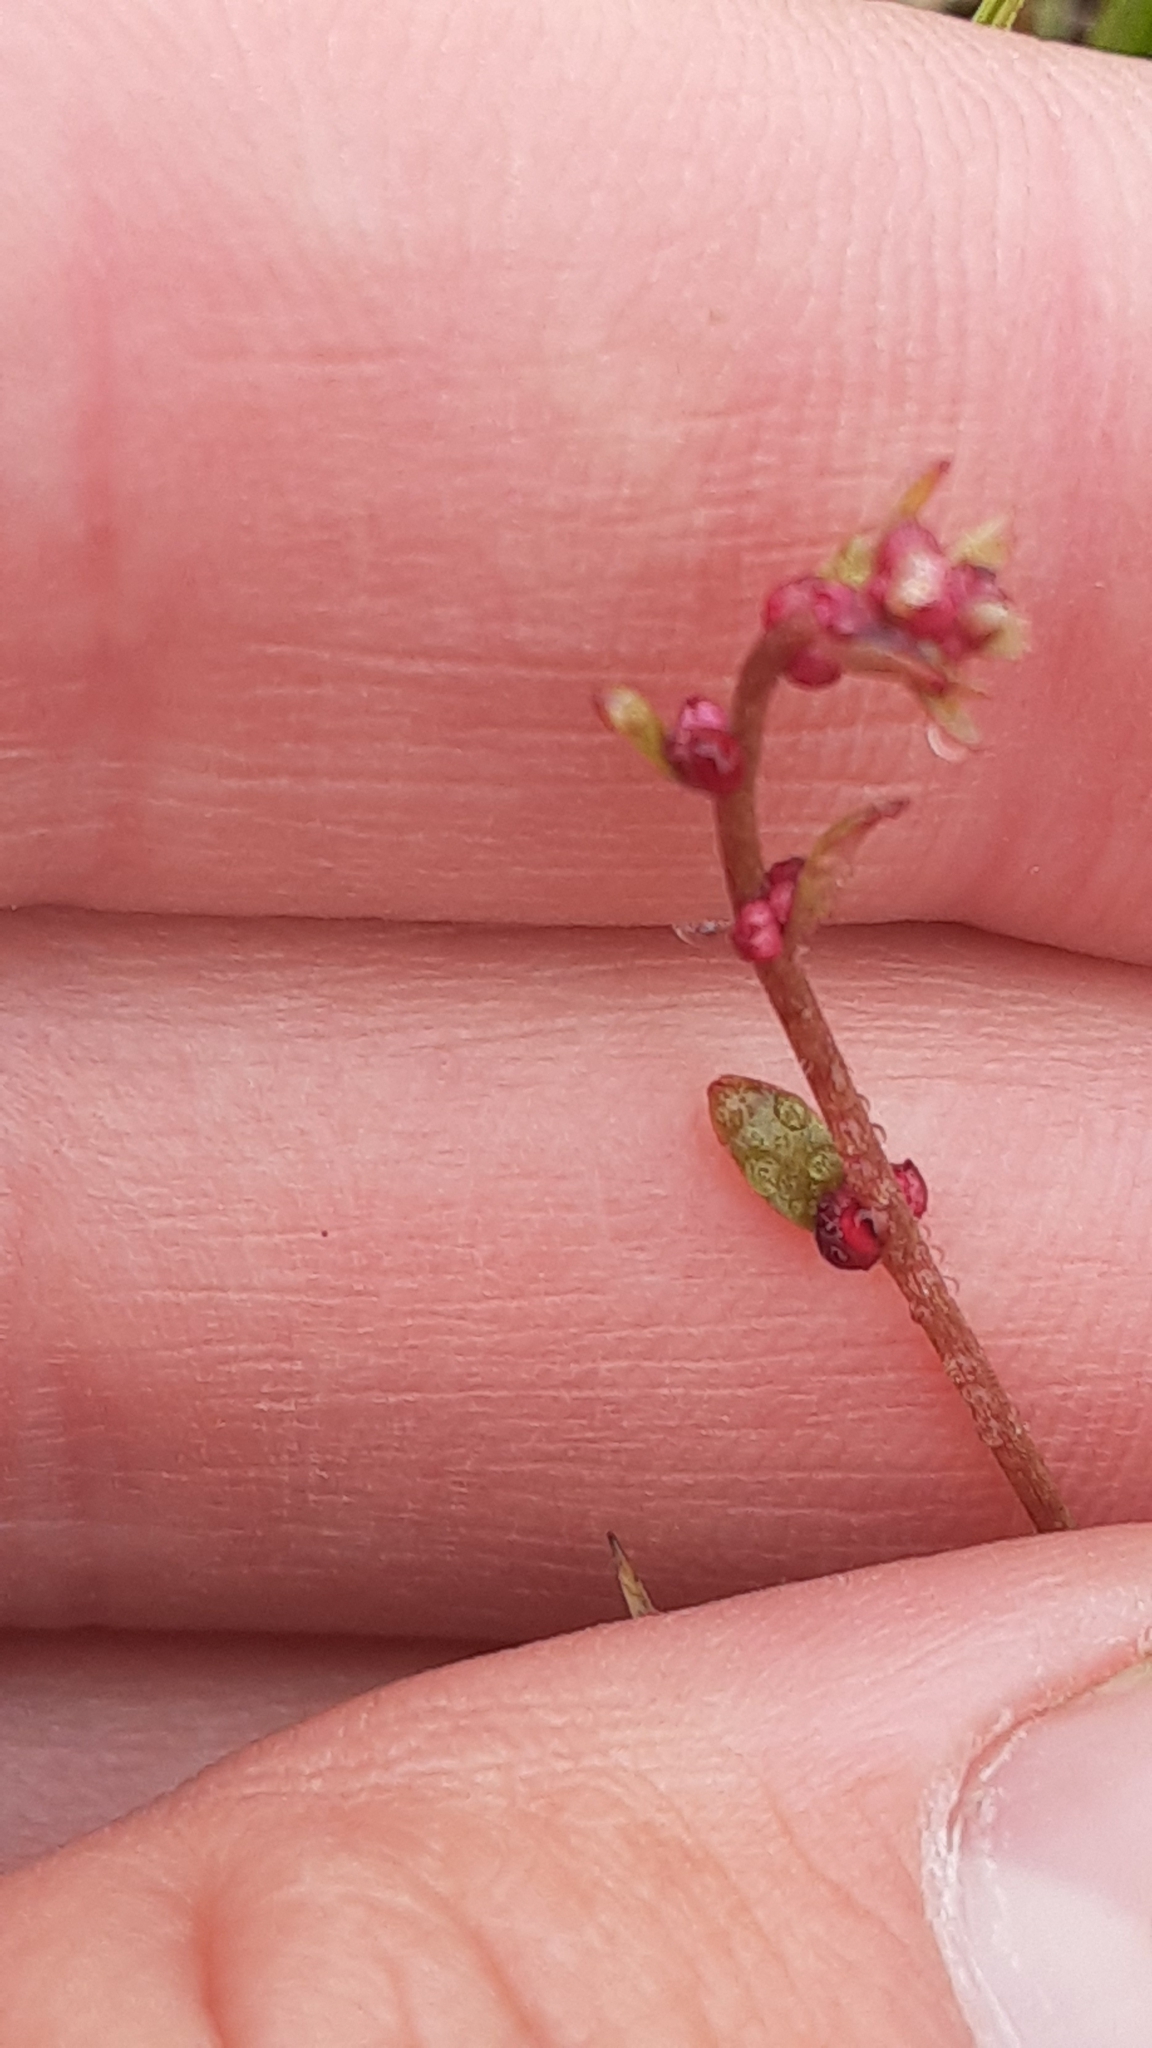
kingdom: Plantae
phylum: Tracheophyta
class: Magnoliopsida
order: Saxifragales
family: Saxifragaceae
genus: Saxifraga
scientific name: Saxifraga cernua
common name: Drooping saxifrage
